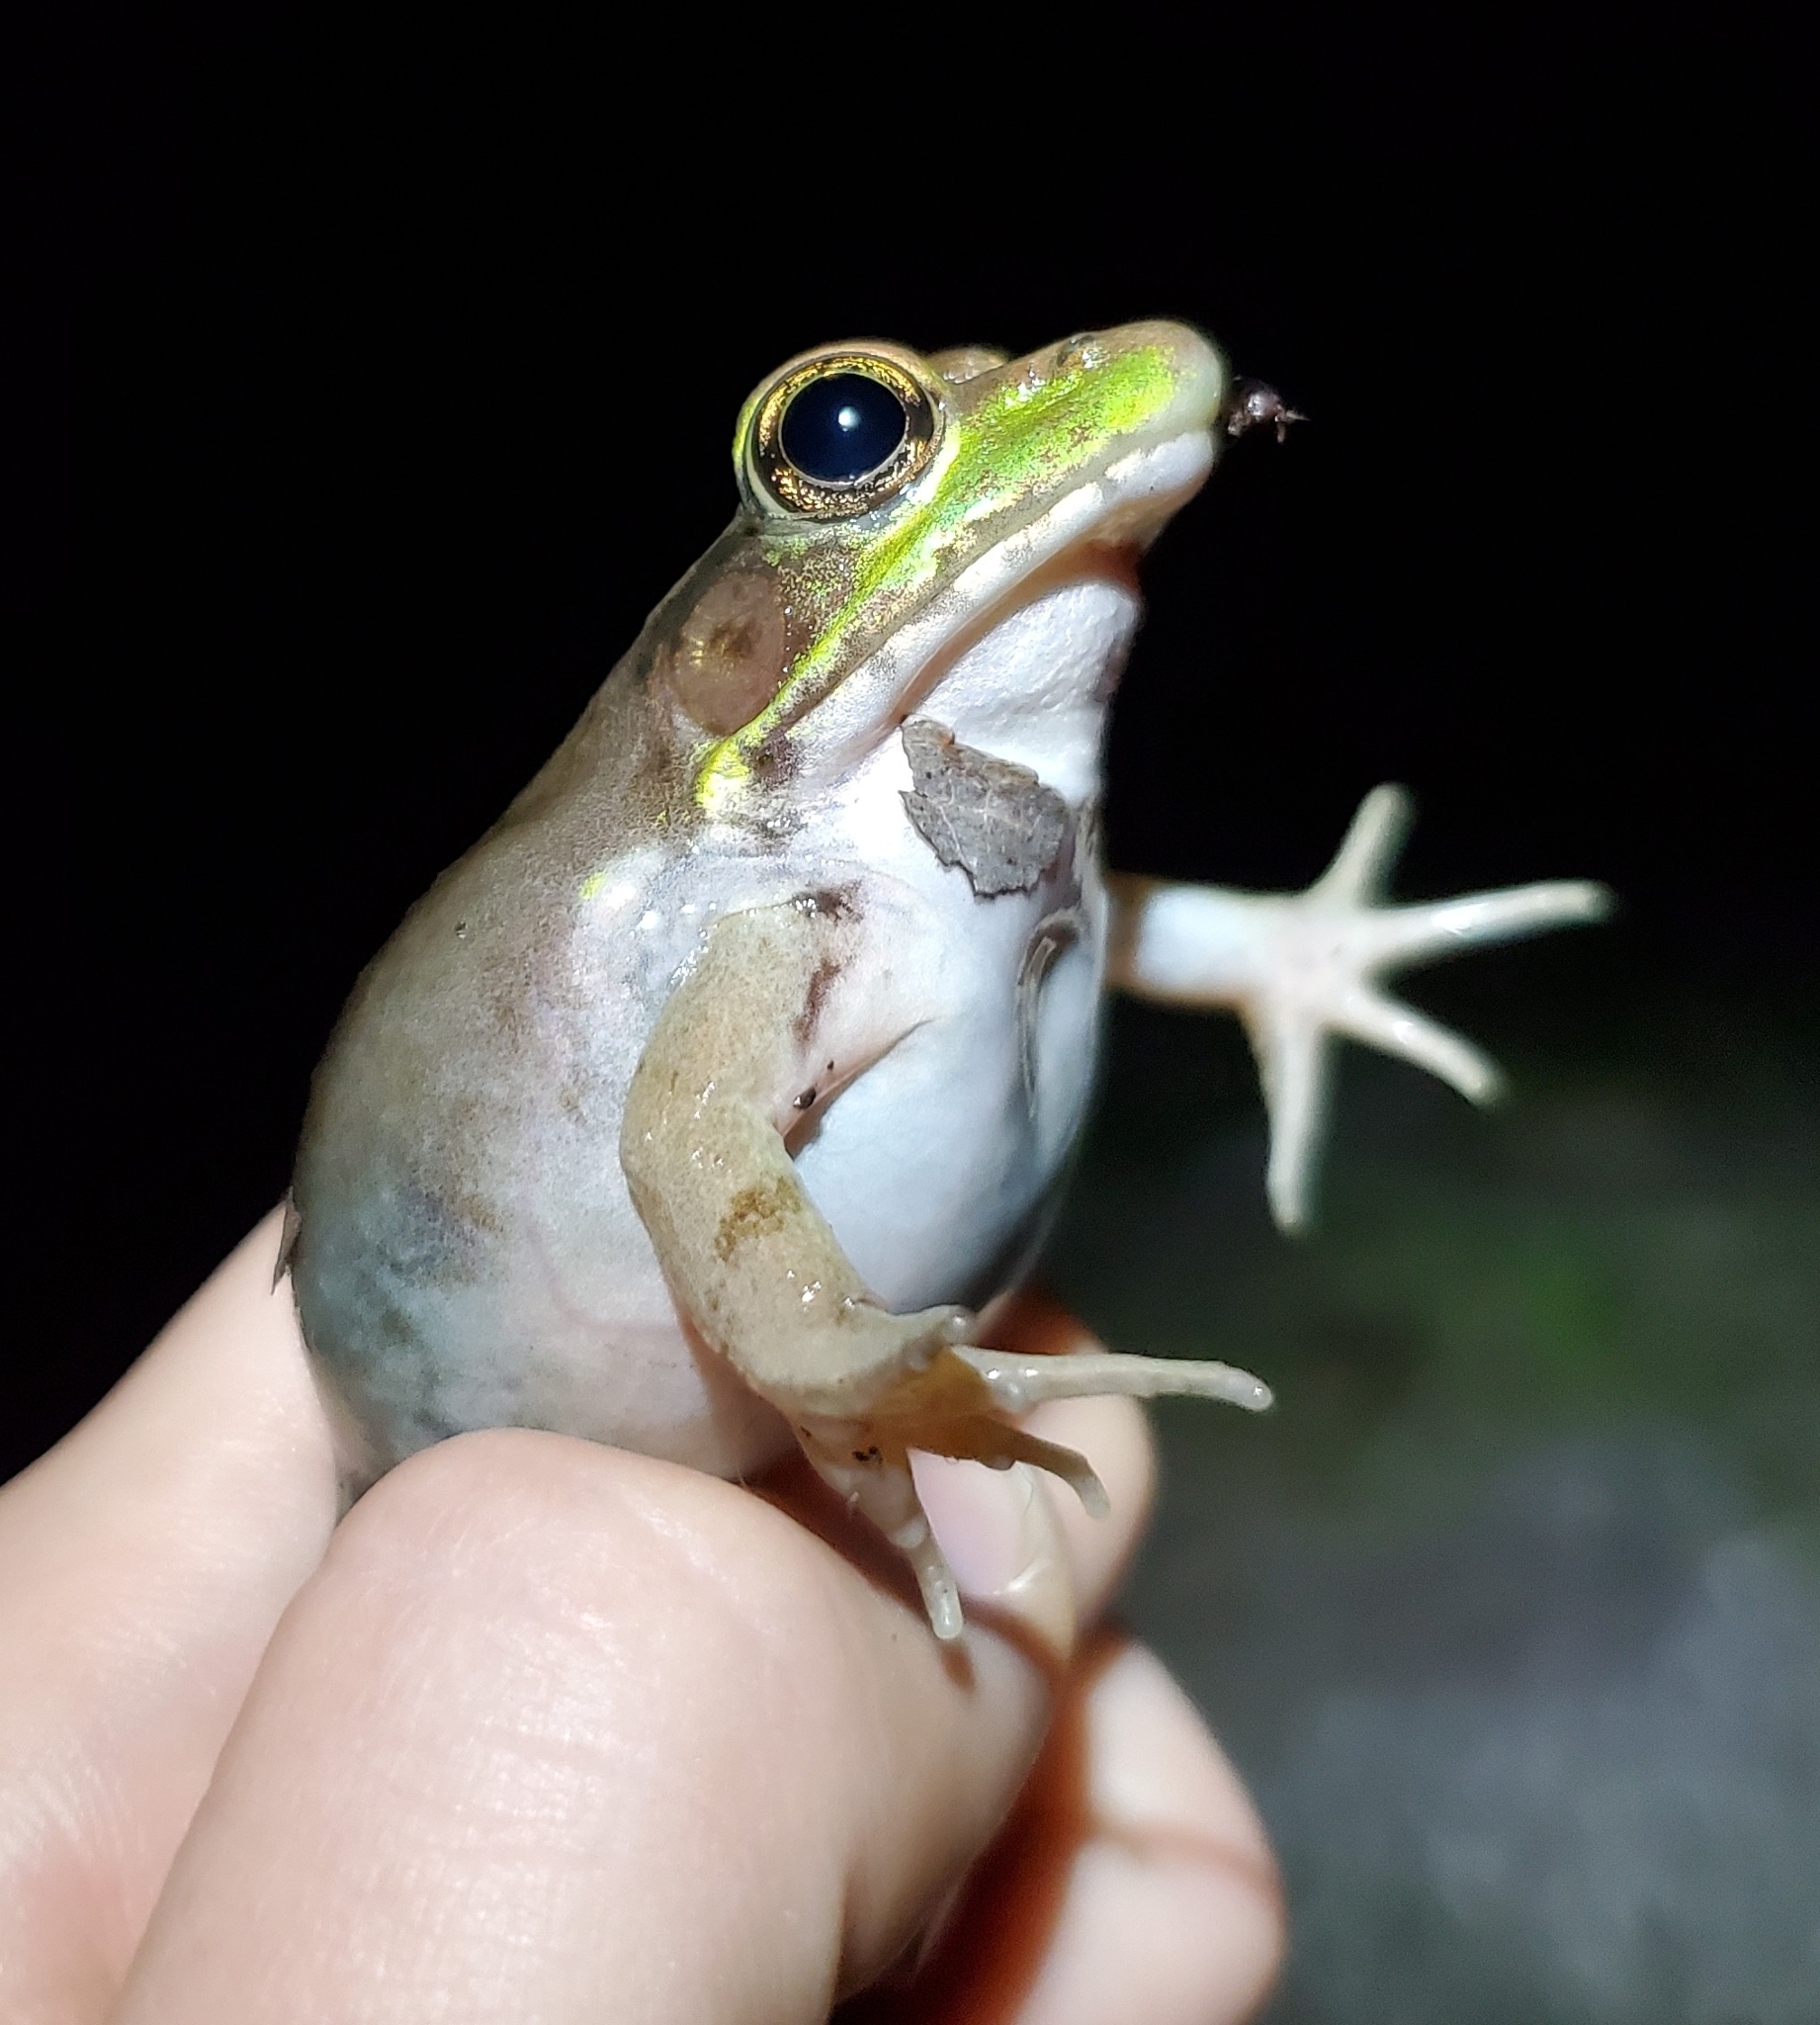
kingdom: Animalia
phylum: Chordata
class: Amphibia
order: Anura
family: Ranidae
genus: Lithobates
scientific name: Lithobates clamitans
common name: Green frog
